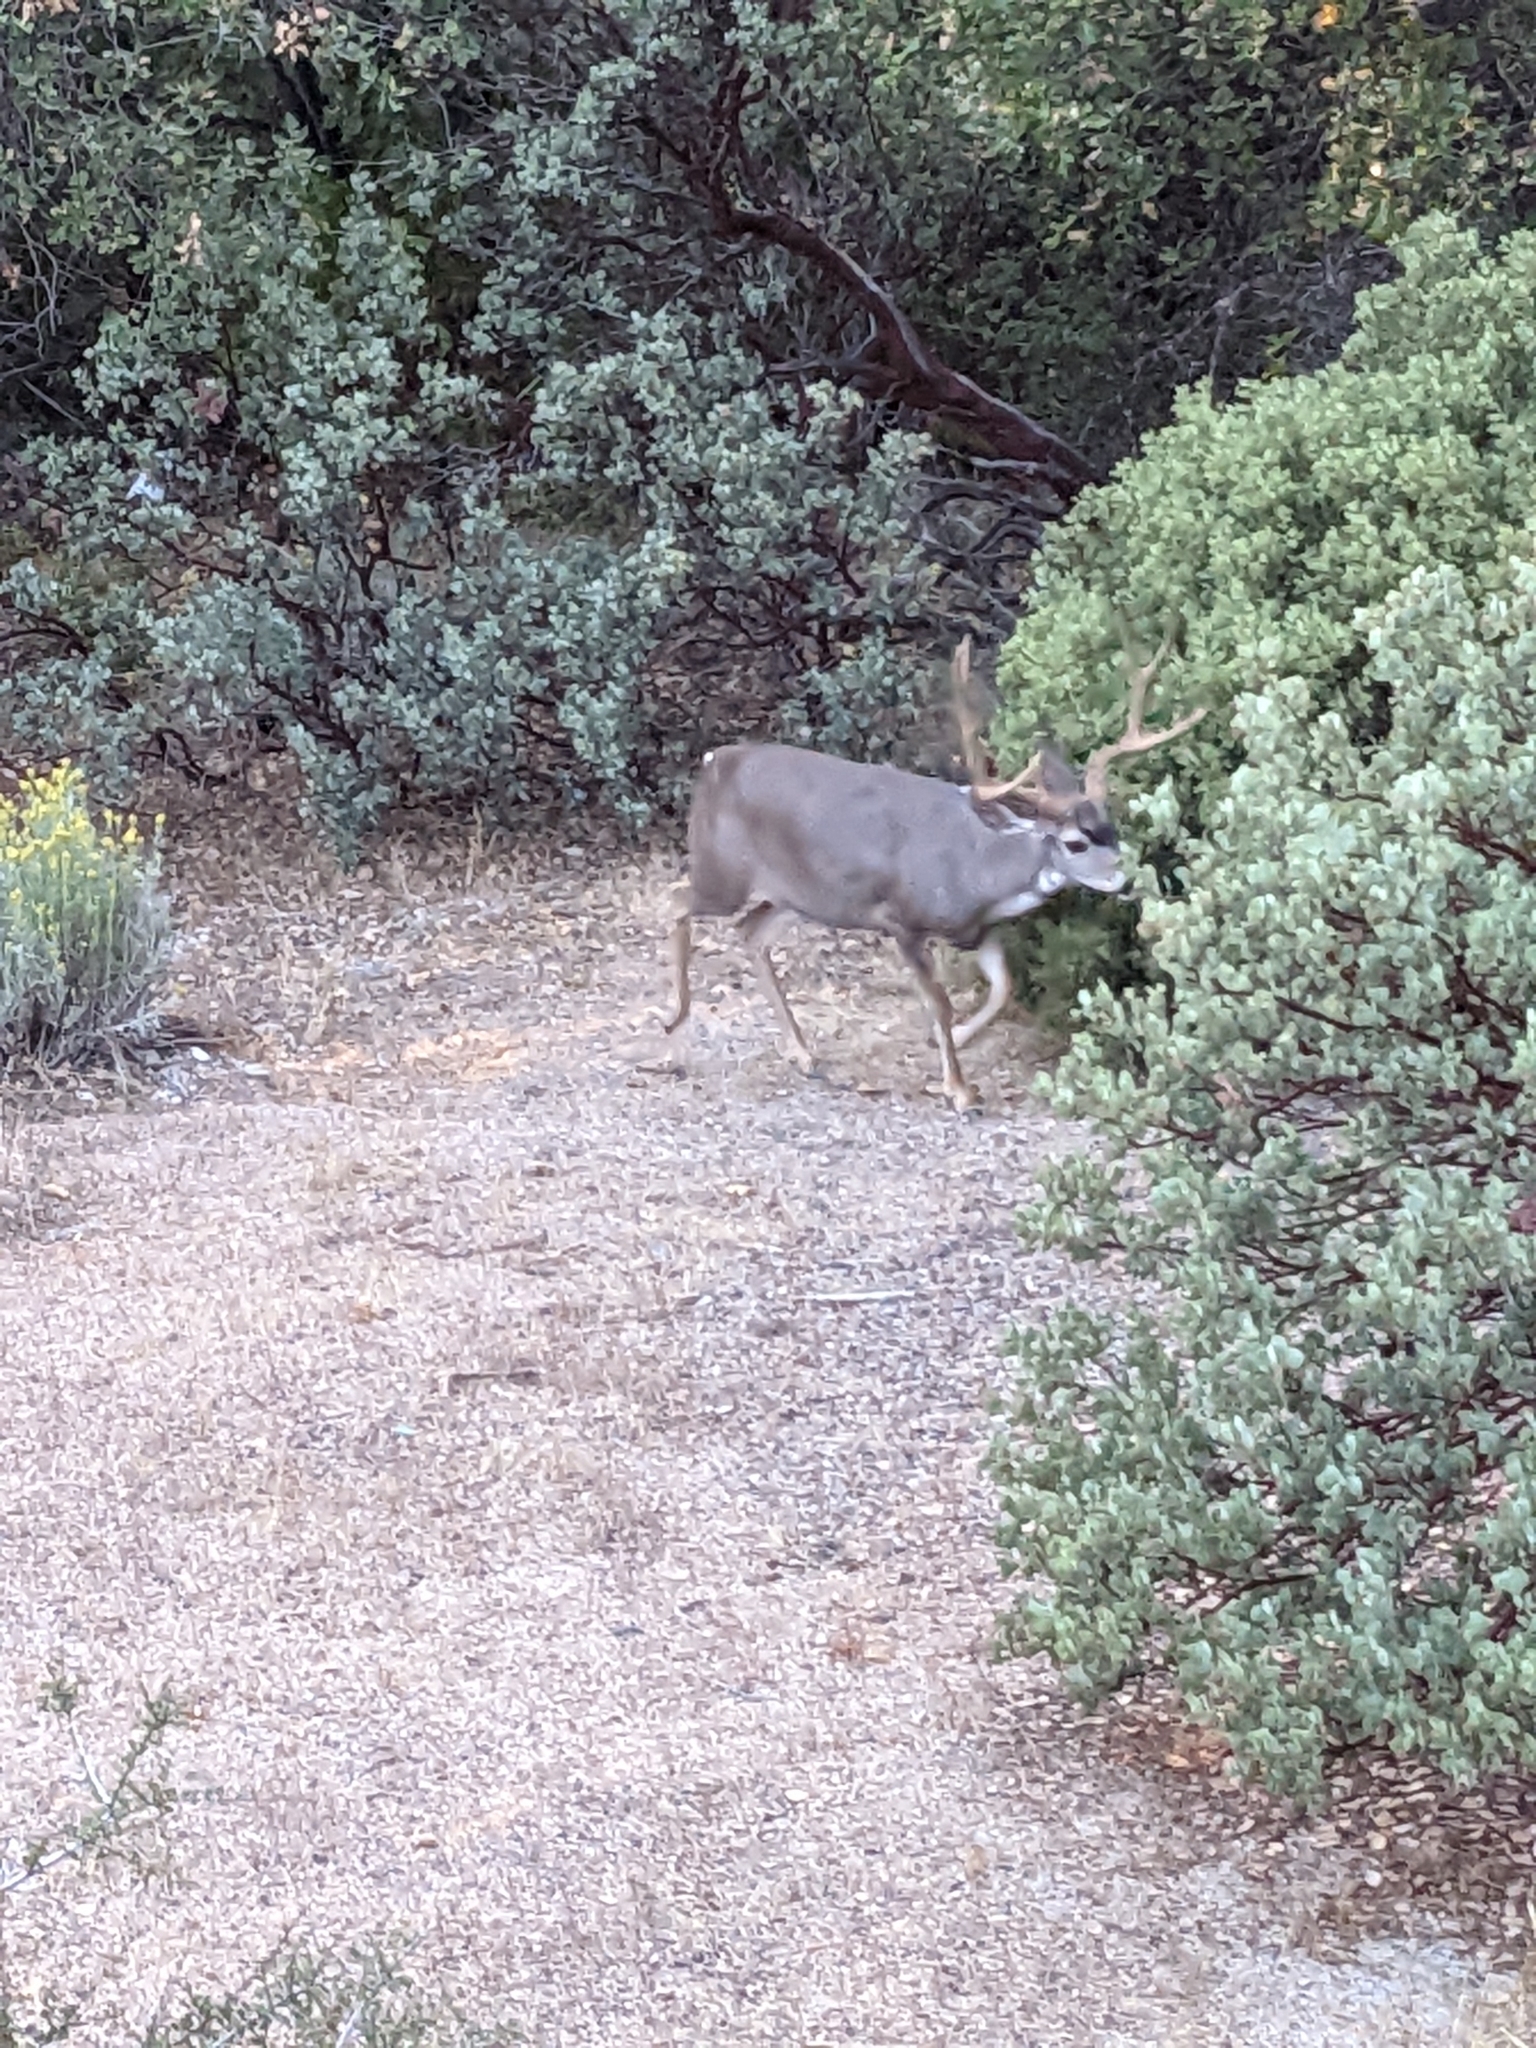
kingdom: Animalia
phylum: Chordata
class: Mammalia
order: Artiodactyla
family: Cervidae
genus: Odocoileus
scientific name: Odocoileus hemionus
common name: Mule deer
